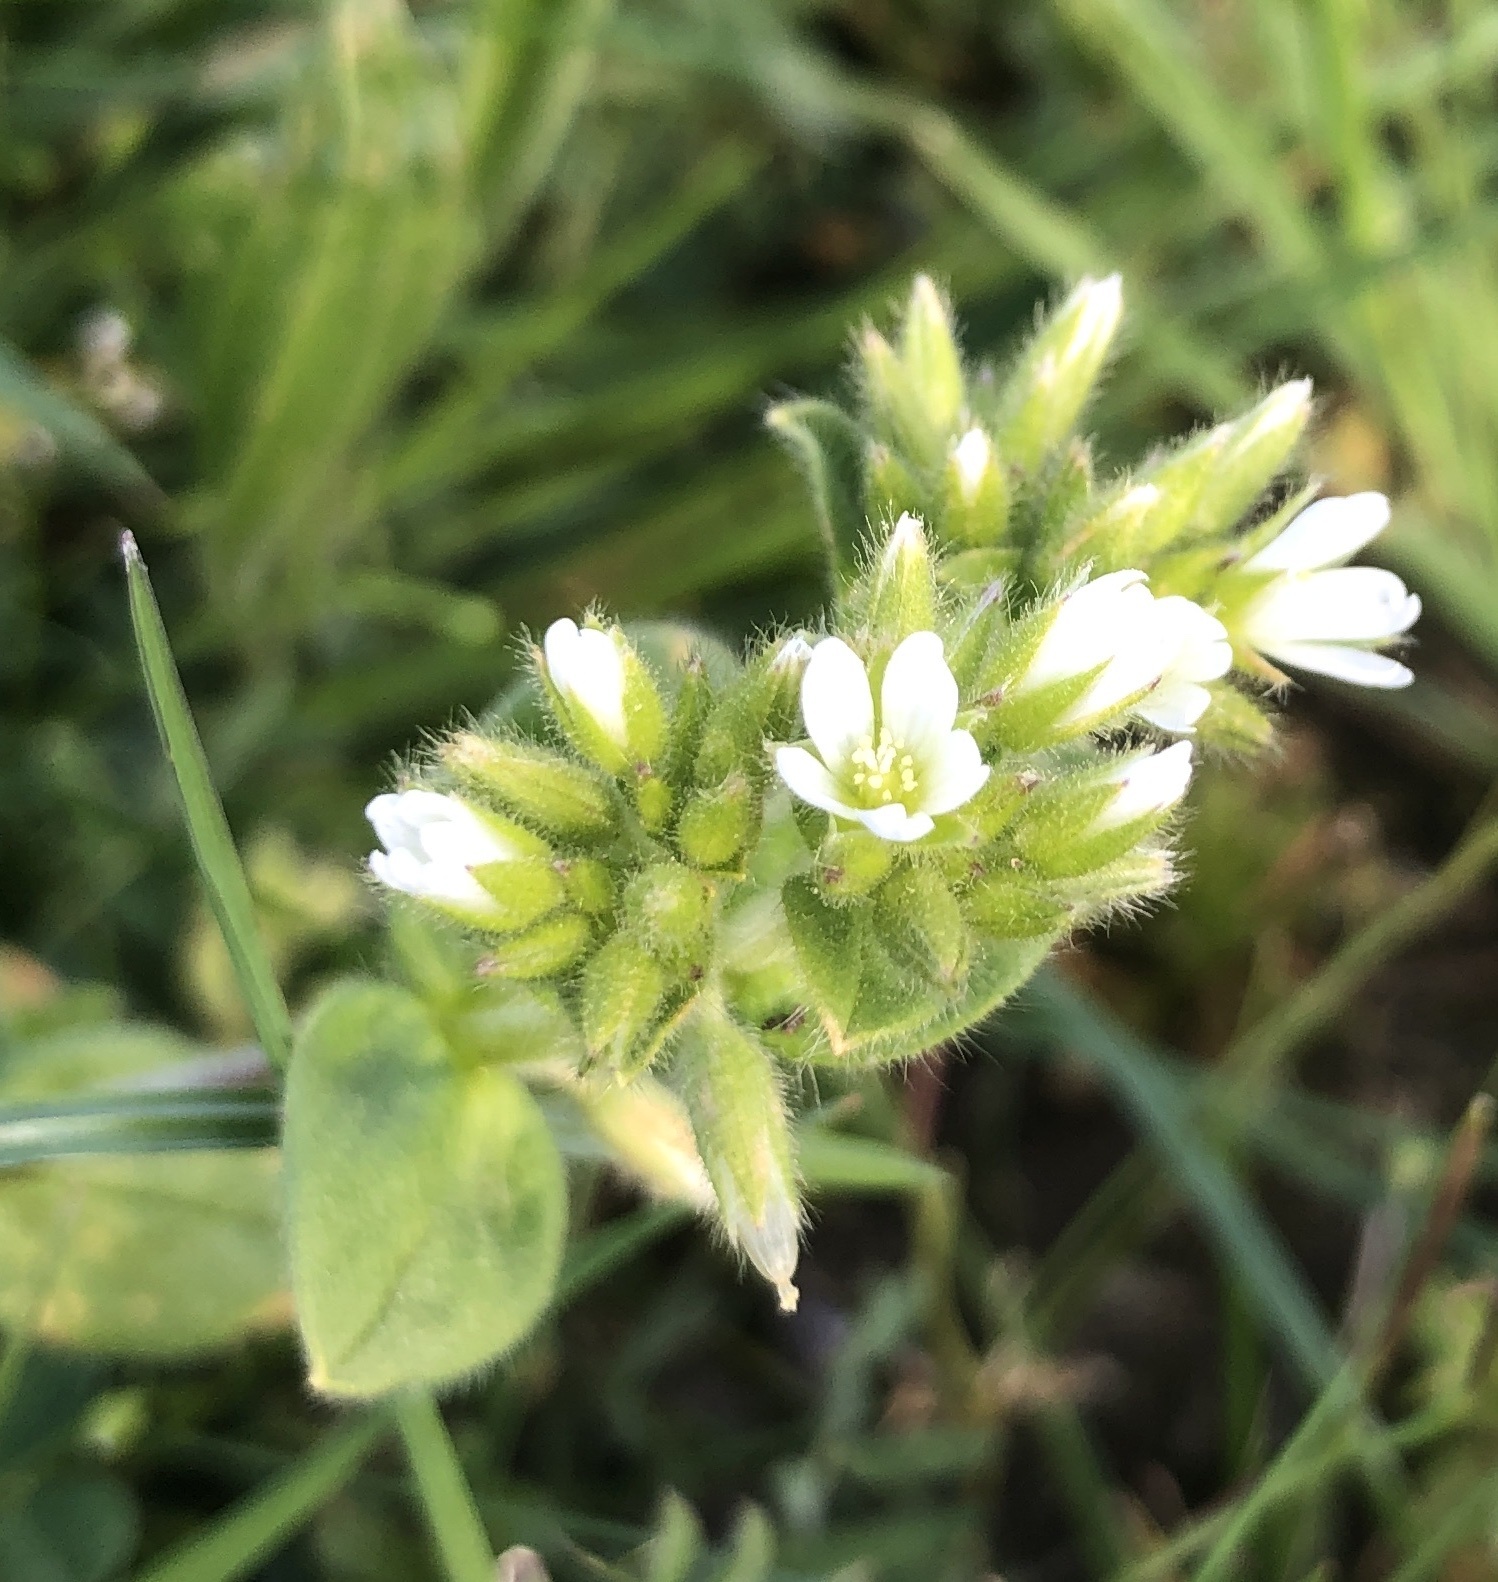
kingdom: Plantae
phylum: Tracheophyta
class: Magnoliopsida
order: Caryophyllales
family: Caryophyllaceae
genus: Cerastium
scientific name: Cerastium glomeratum
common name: Sticky chickweed
